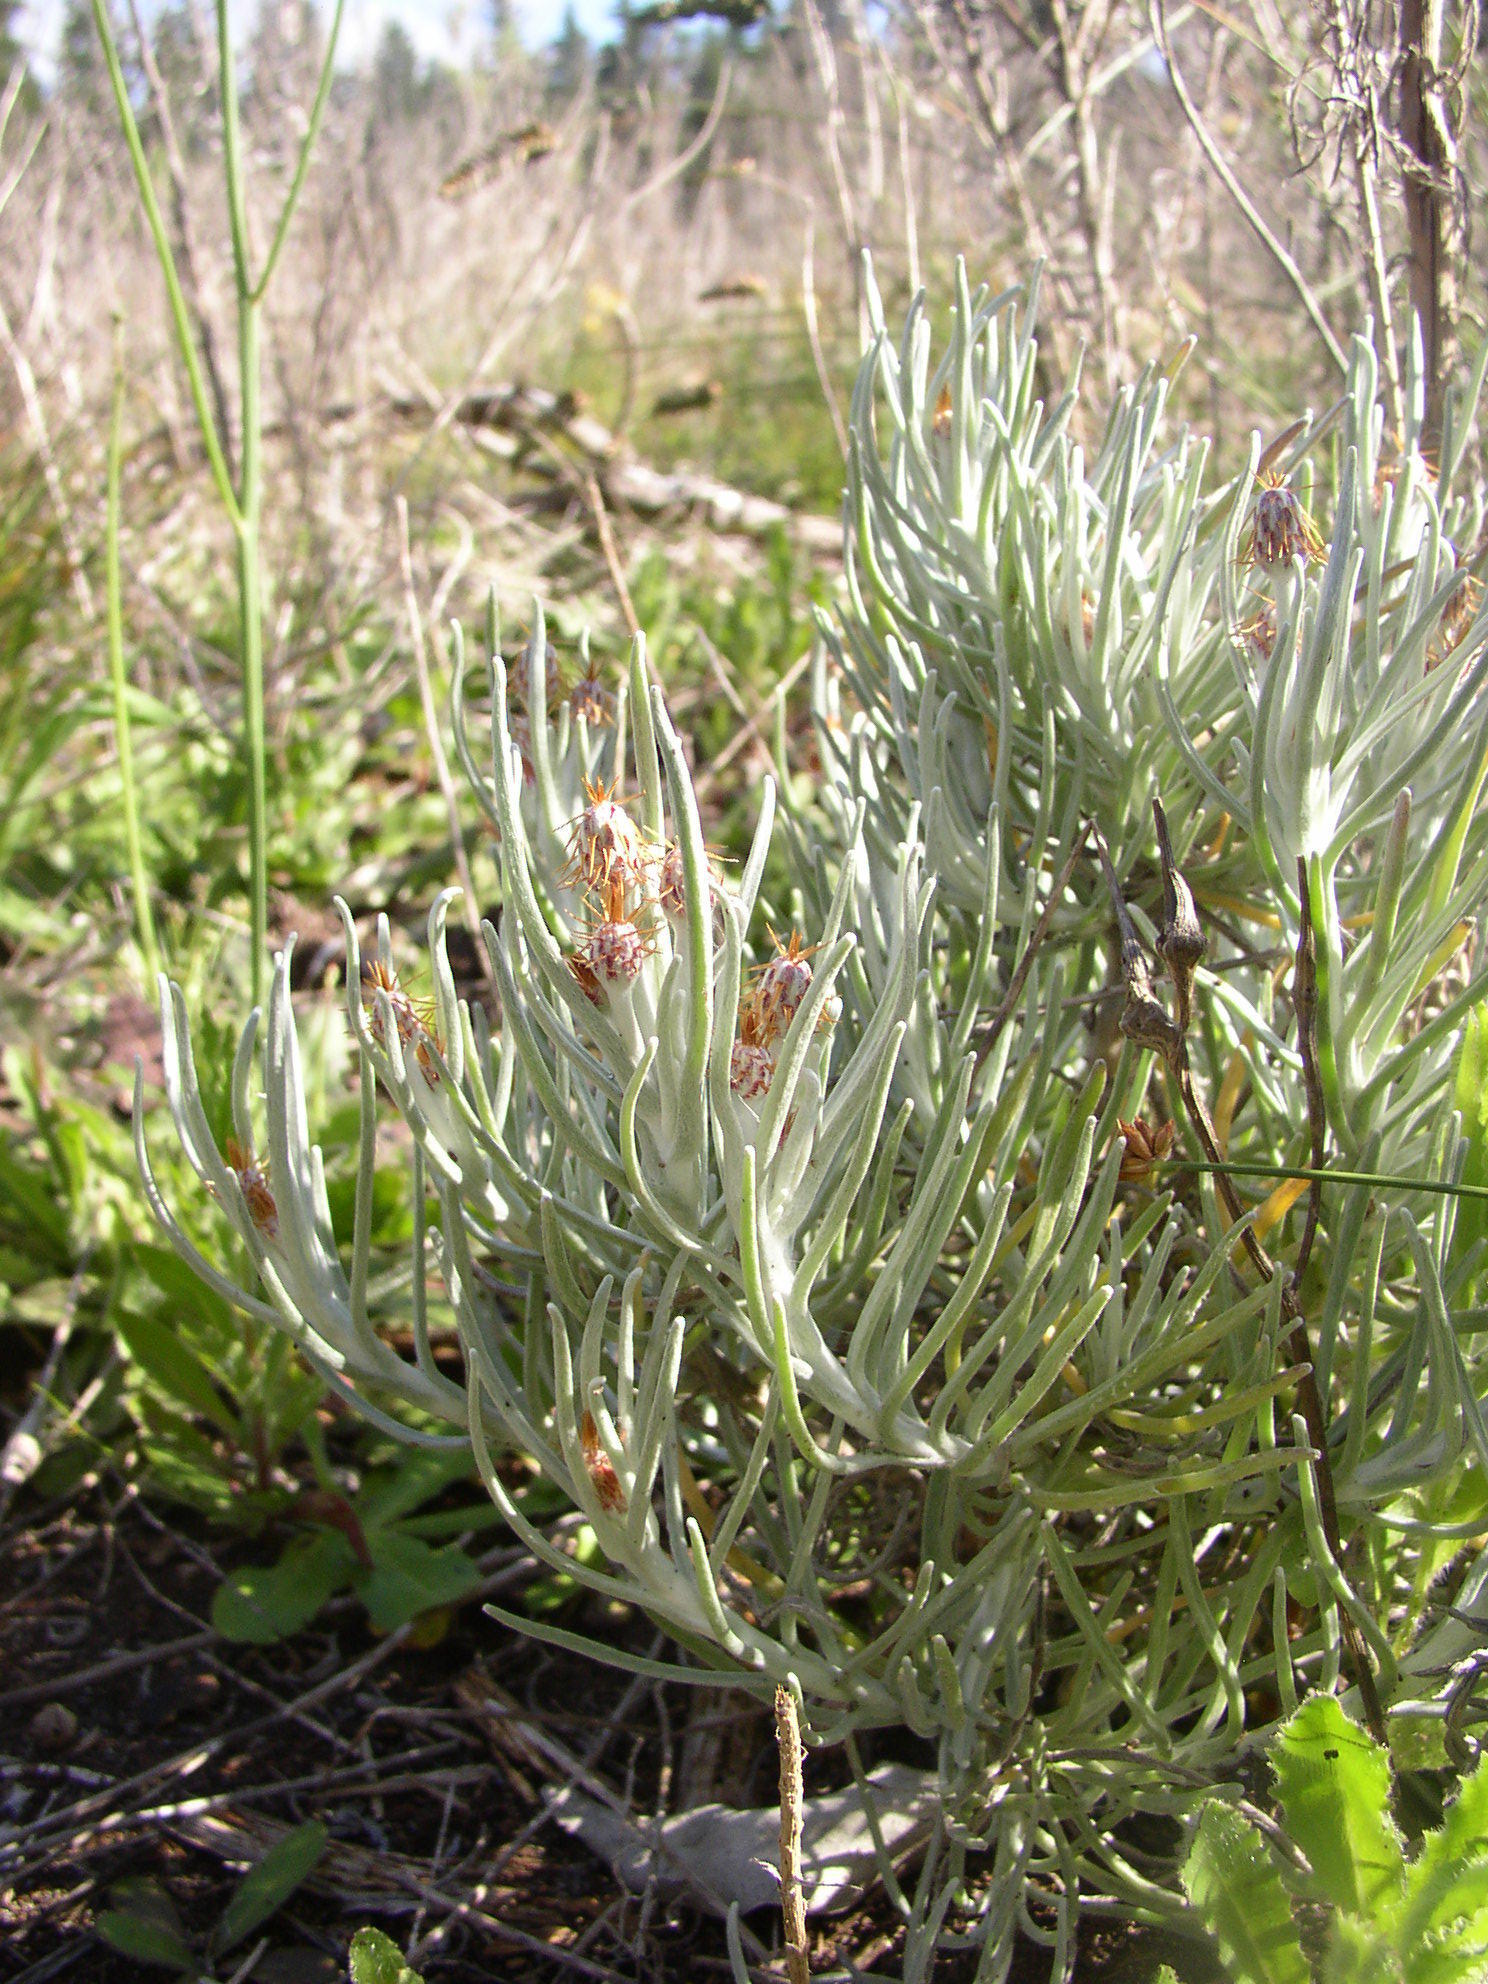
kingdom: Plantae
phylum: Tracheophyta
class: Magnoliopsida
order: Asterales
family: Asteraceae
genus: Syncarpha
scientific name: Syncarpha gnaphaloides
